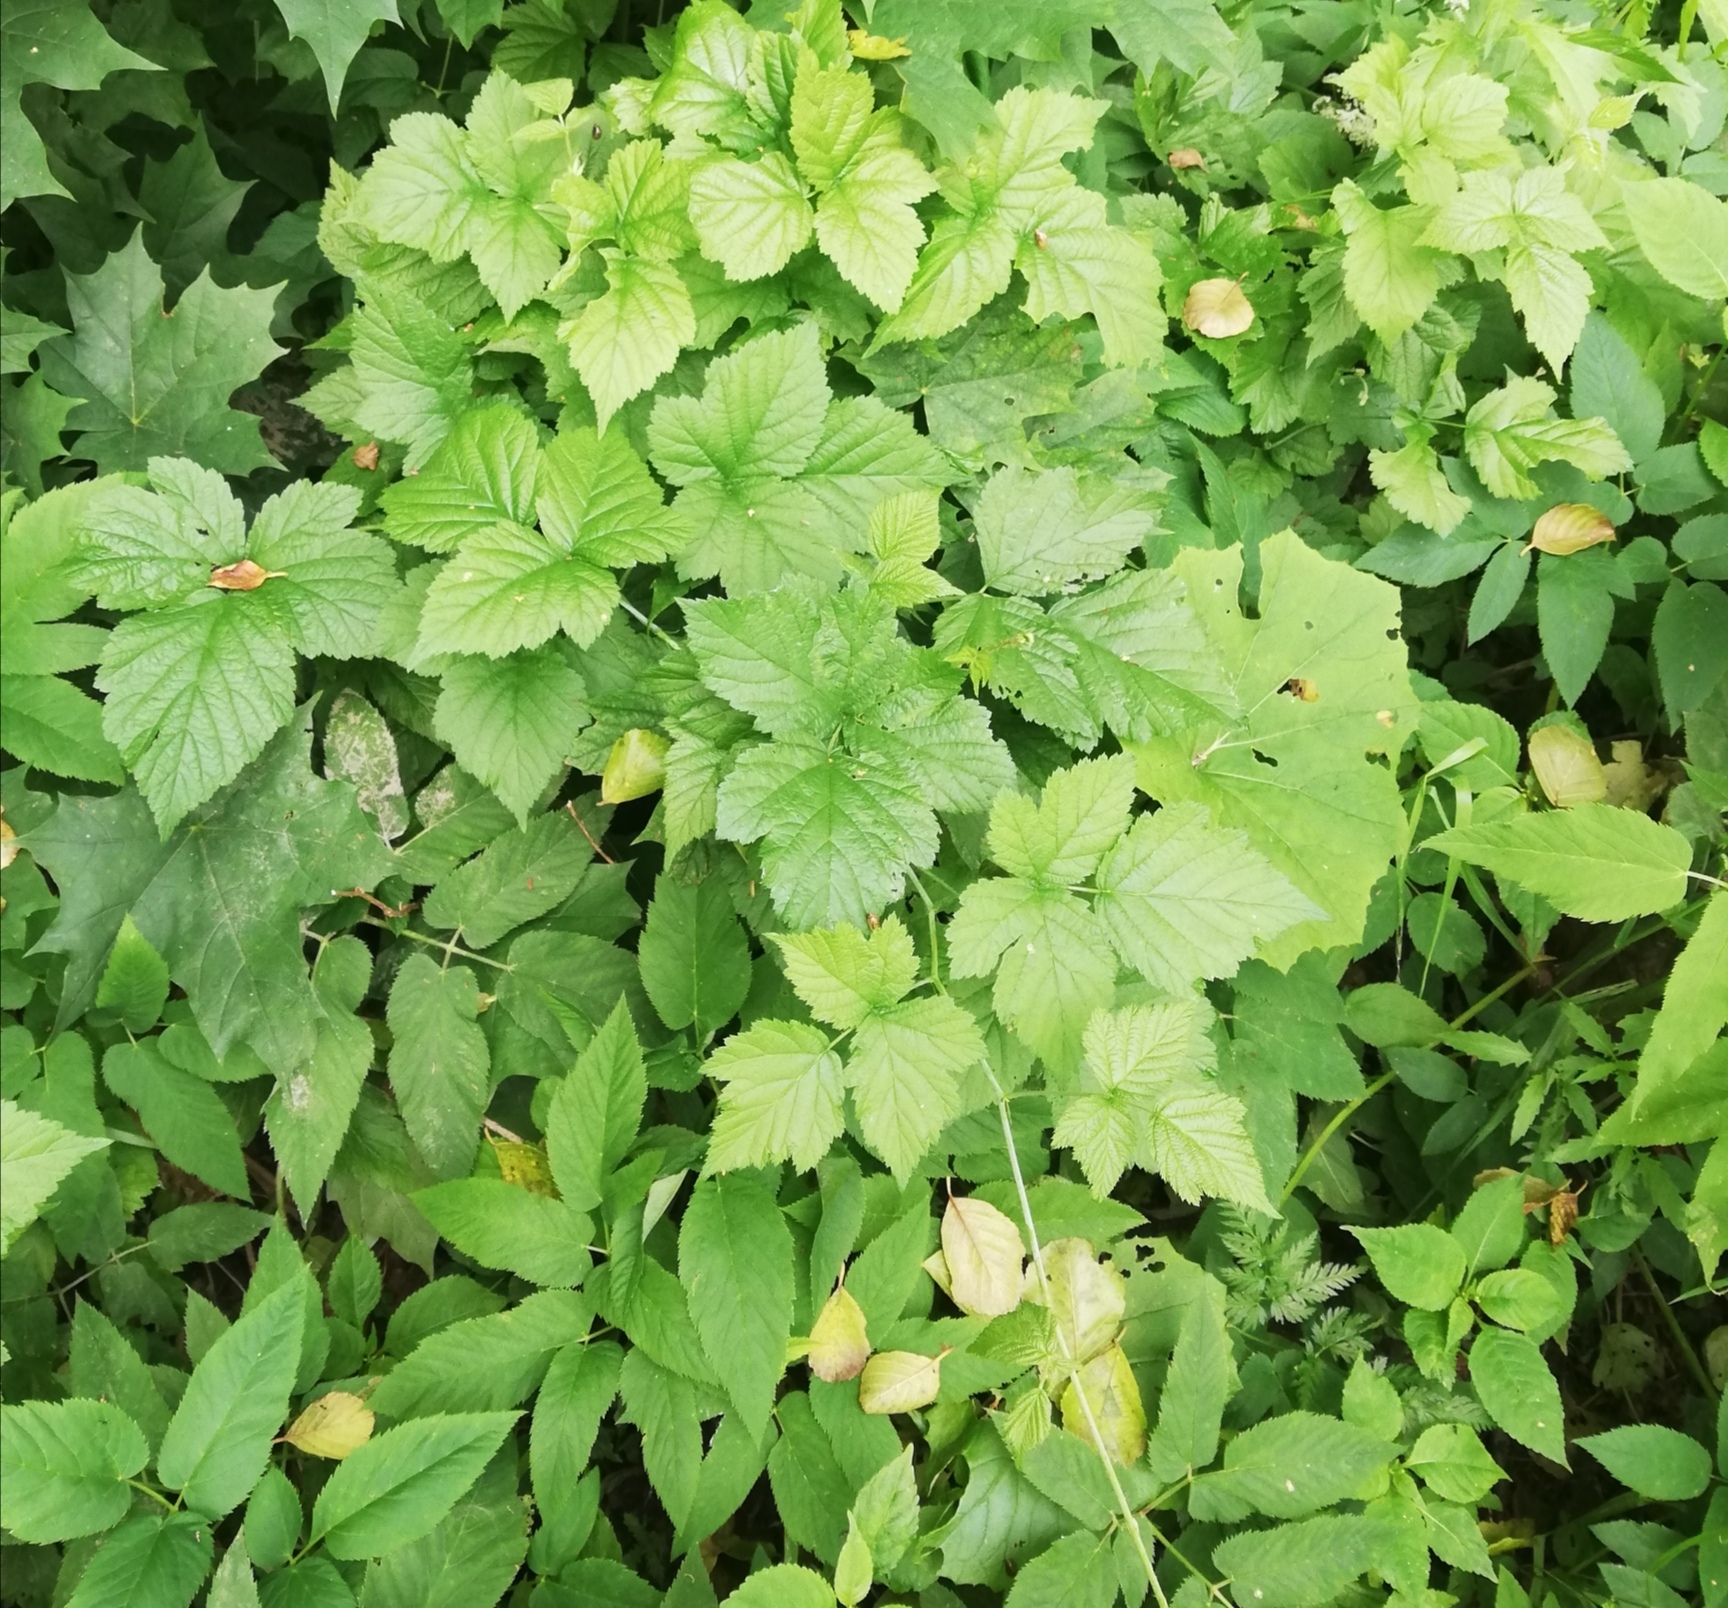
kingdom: Plantae
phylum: Tracheophyta
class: Magnoliopsida
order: Rosales
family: Rosaceae
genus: Rubus
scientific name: Rubus caesius
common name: Dewberry
